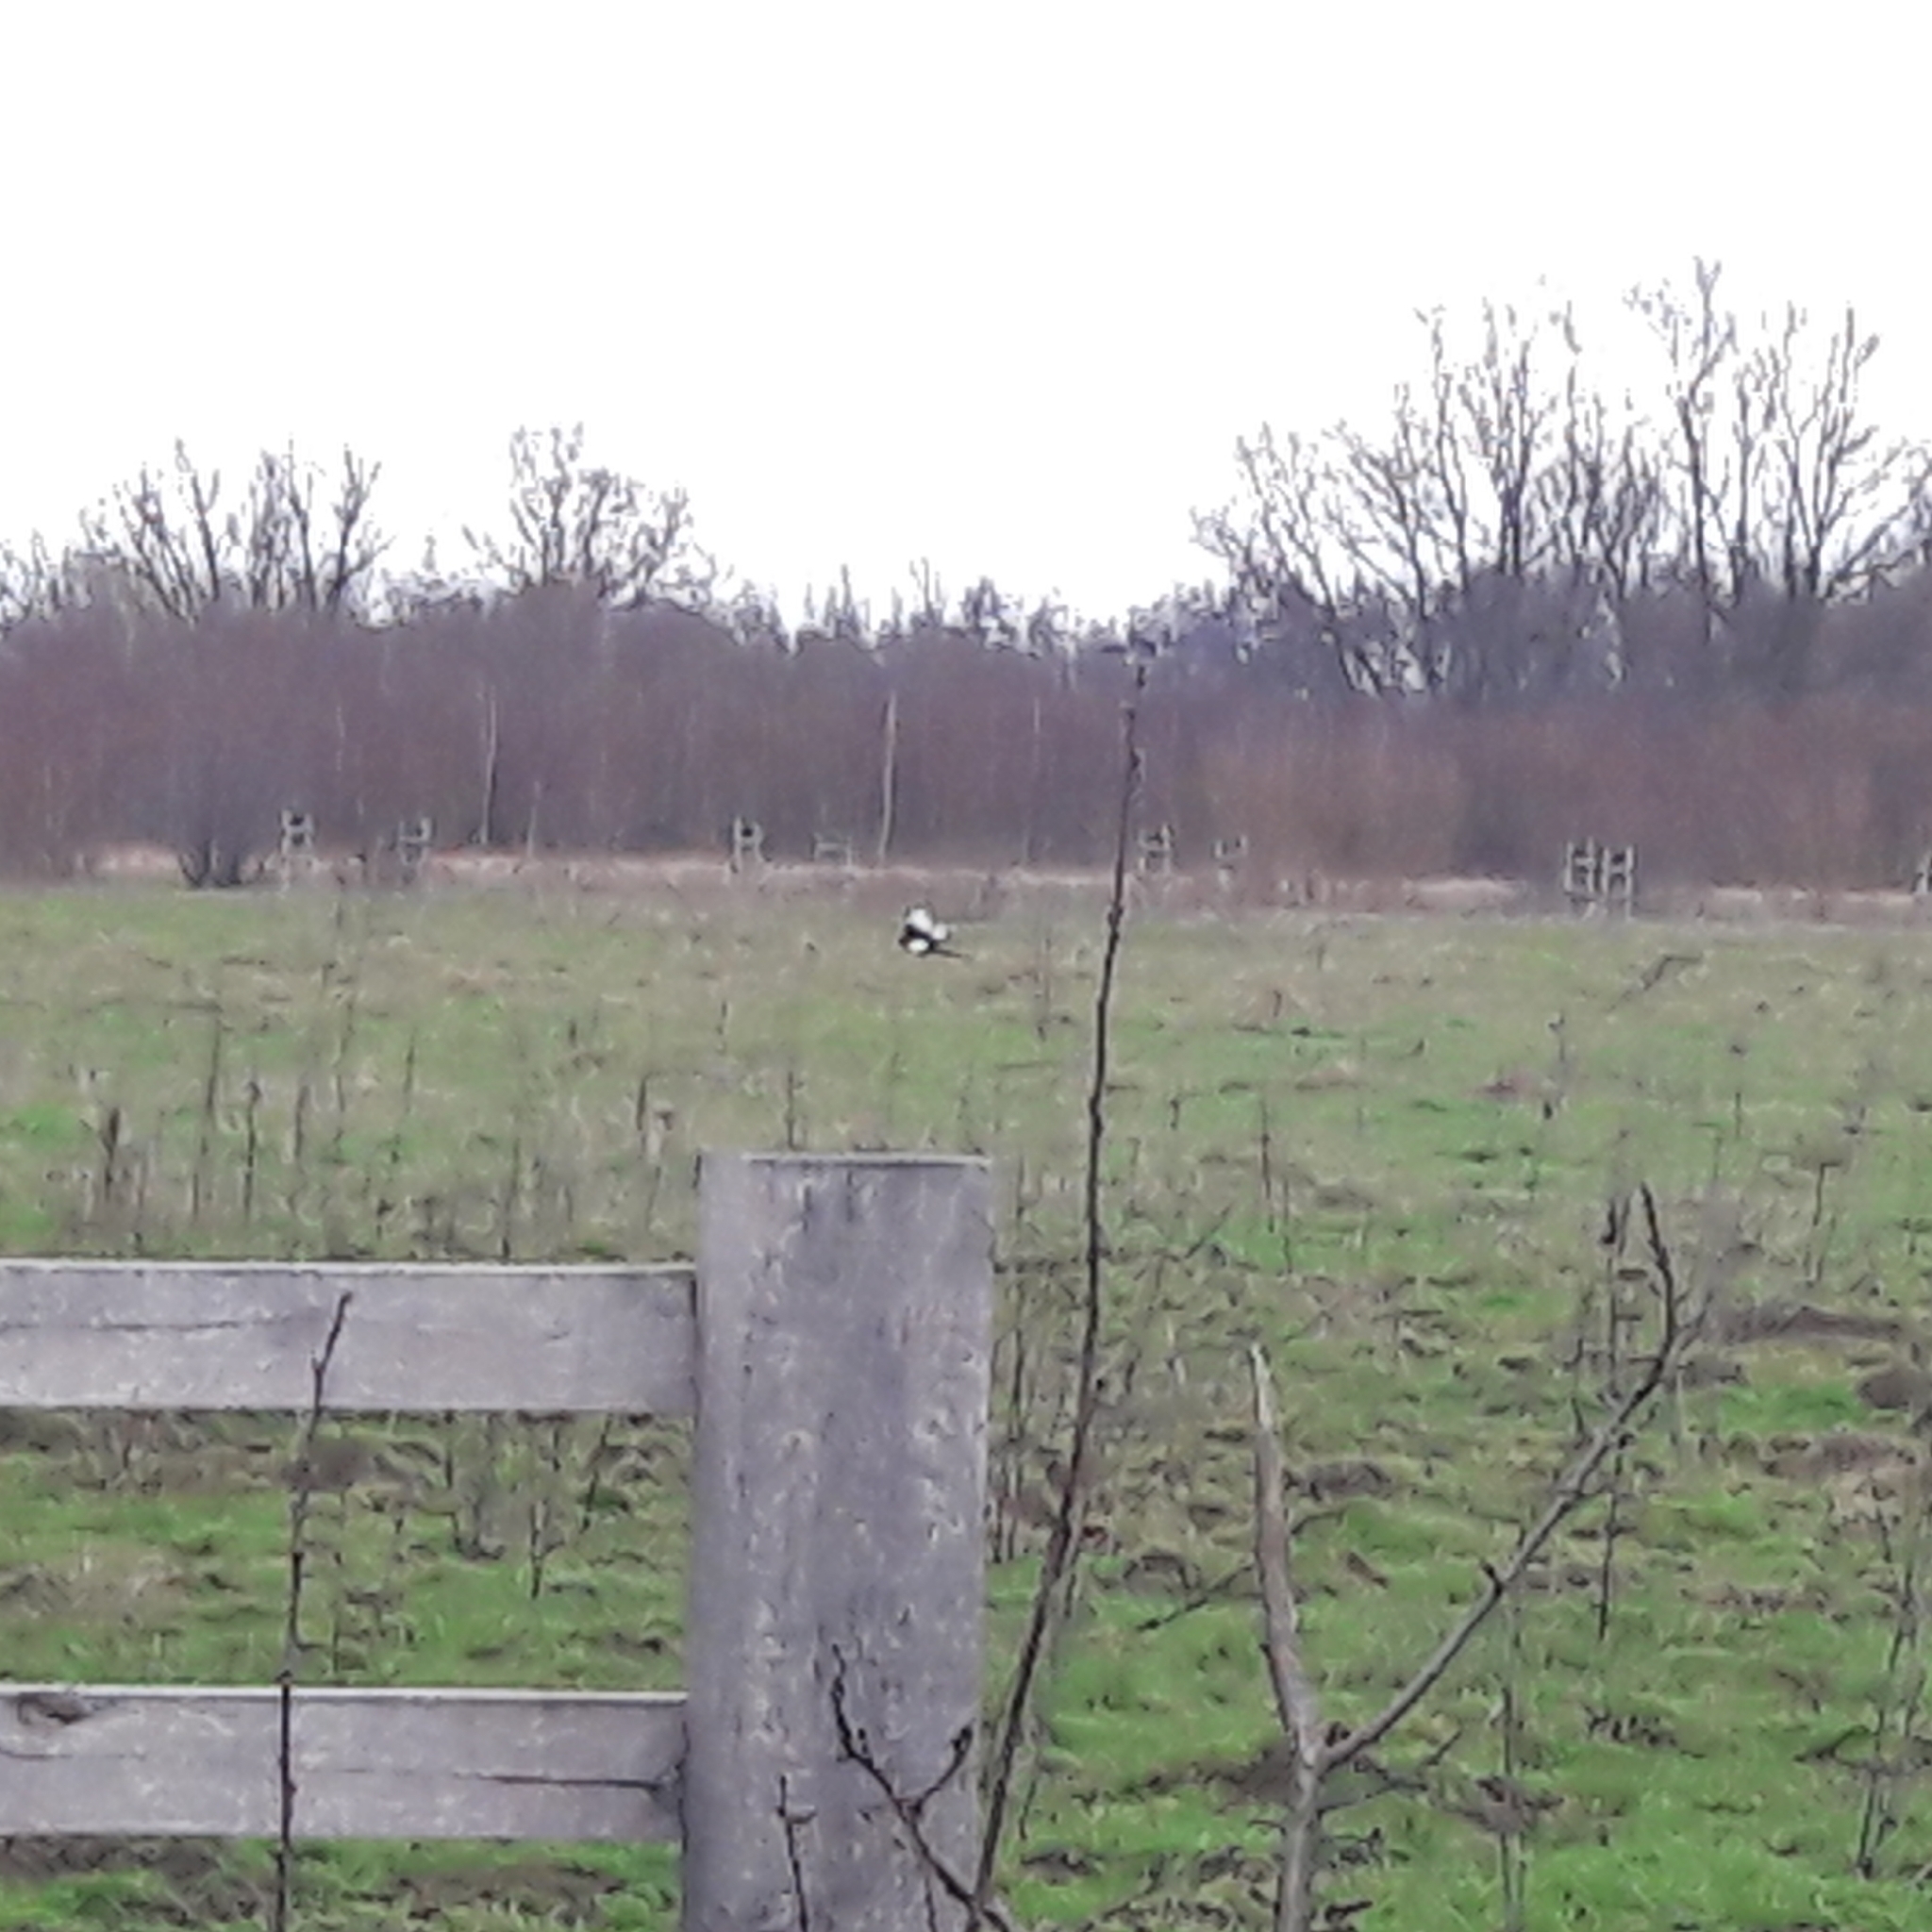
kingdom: Animalia
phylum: Chordata
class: Aves
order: Passeriformes
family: Corvidae
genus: Pica
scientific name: Pica pica
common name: Eurasian magpie
